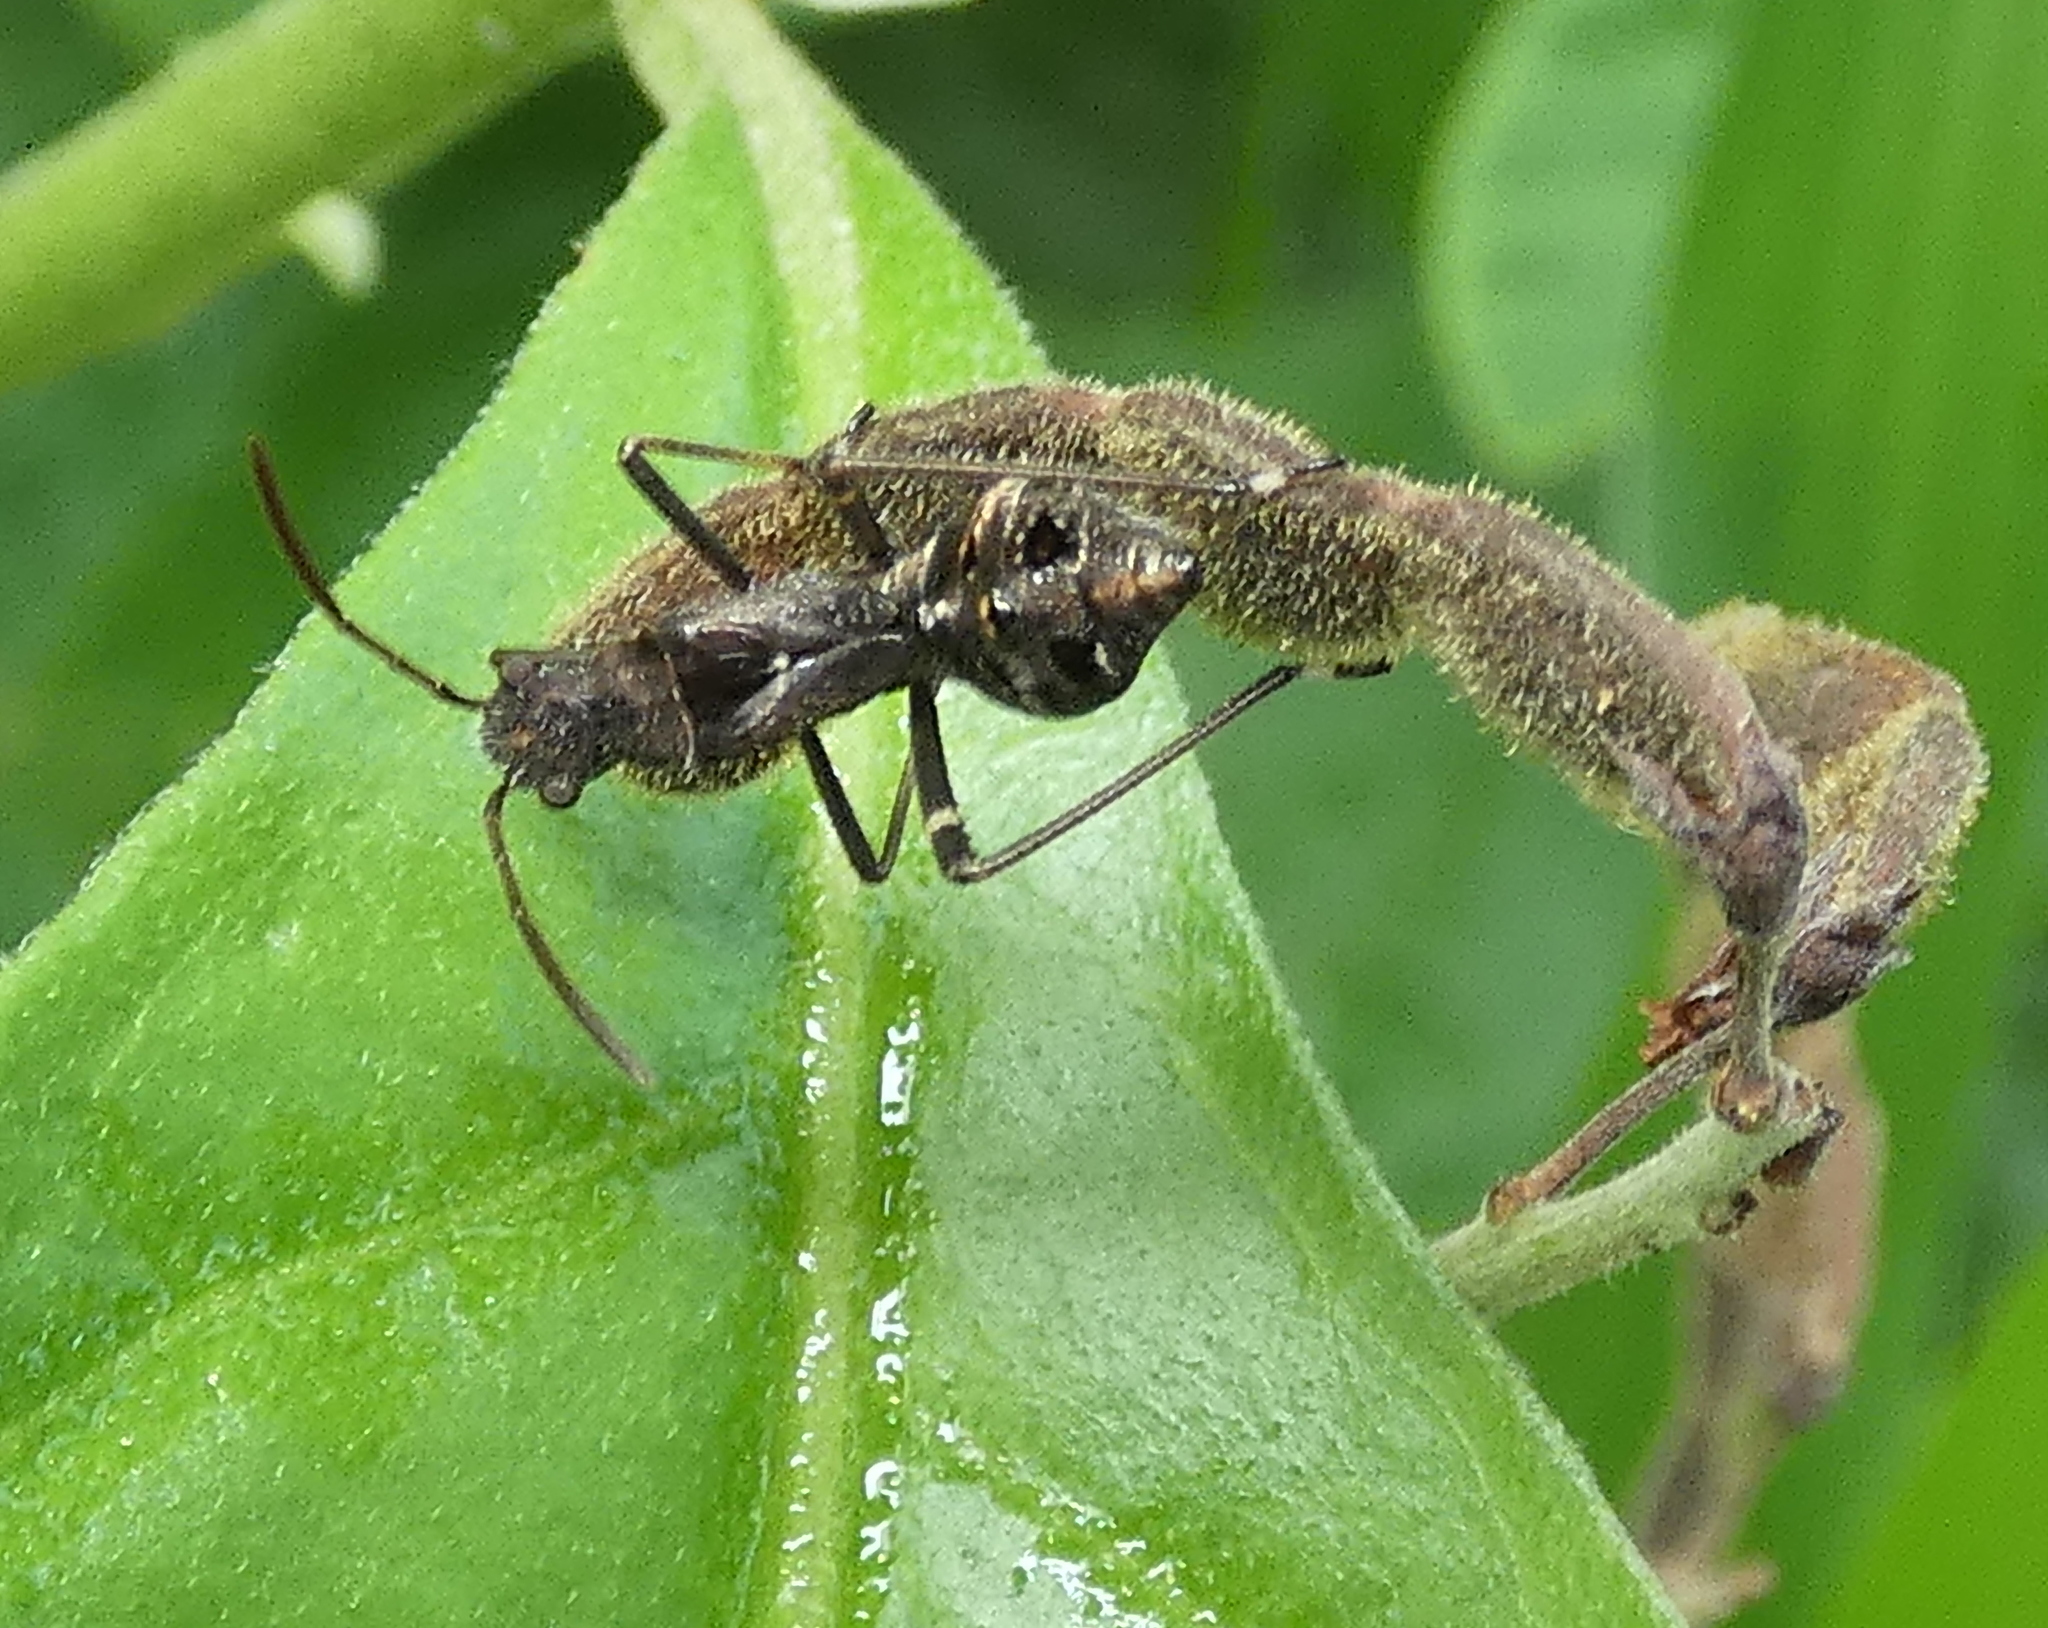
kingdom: Animalia
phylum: Arthropoda
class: Insecta
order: Hemiptera
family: Alydidae
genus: Neomegalotomus
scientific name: Neomegalotomus parvus
